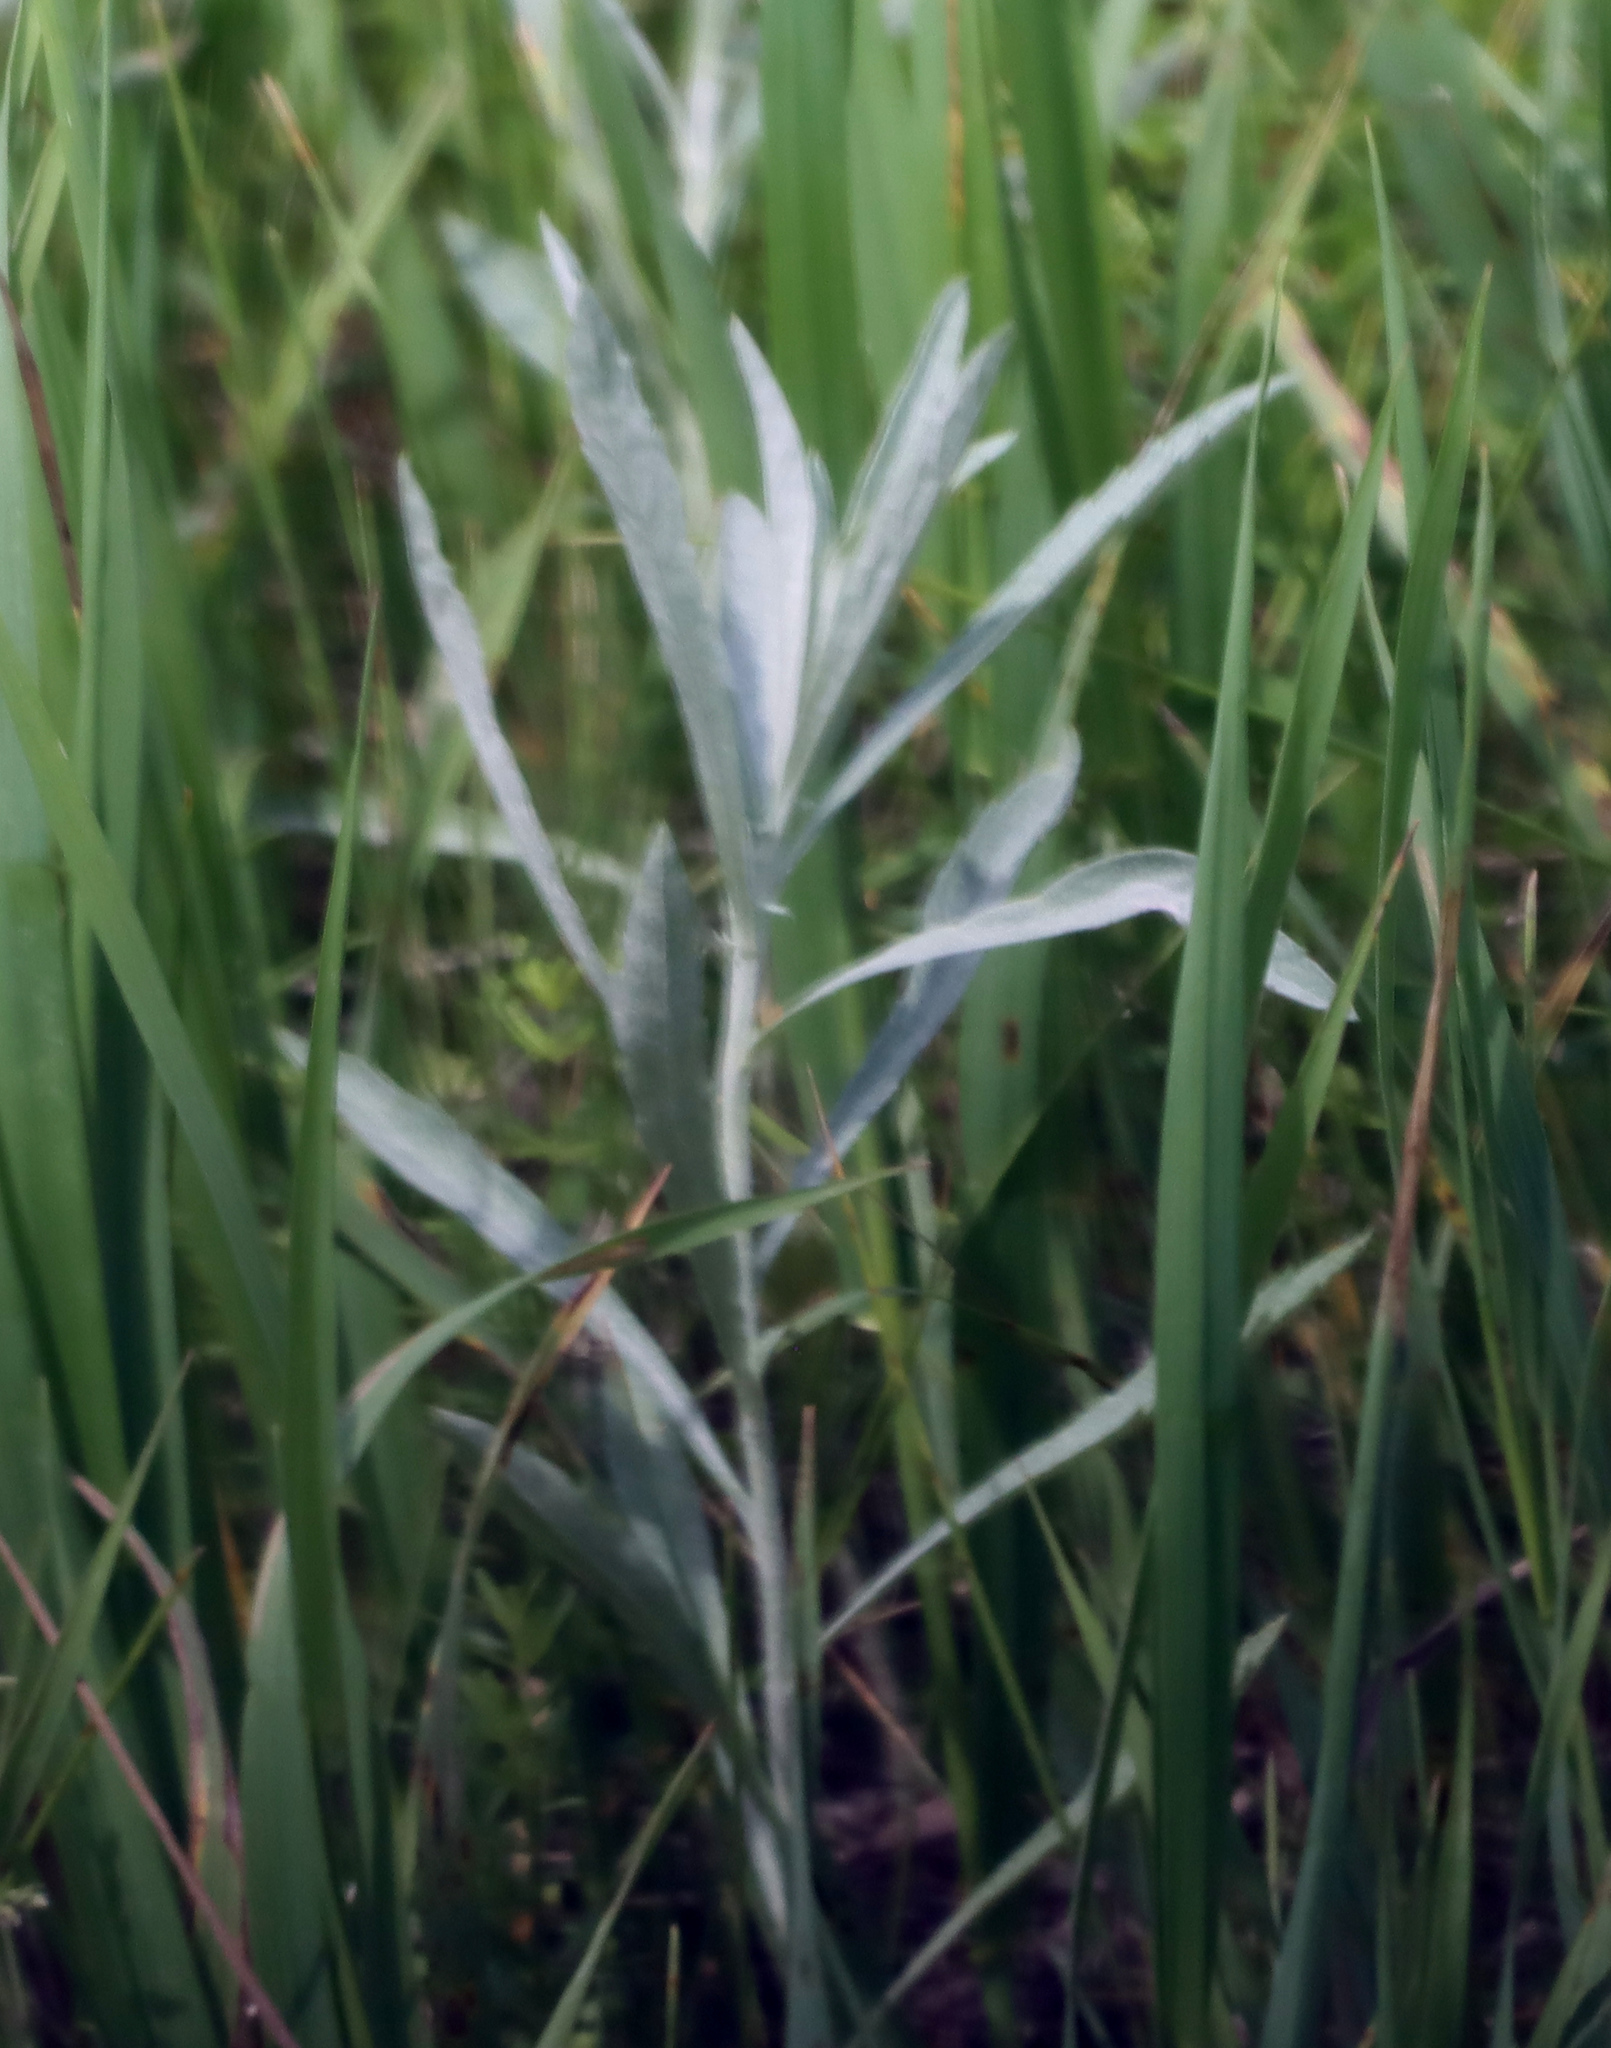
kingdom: Plantae
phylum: Tracheophyta
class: Magnoliopsida
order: Asterales
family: Asteraceae
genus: Artemisia
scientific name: Artemisia ludoviciana
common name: Western mugwort
